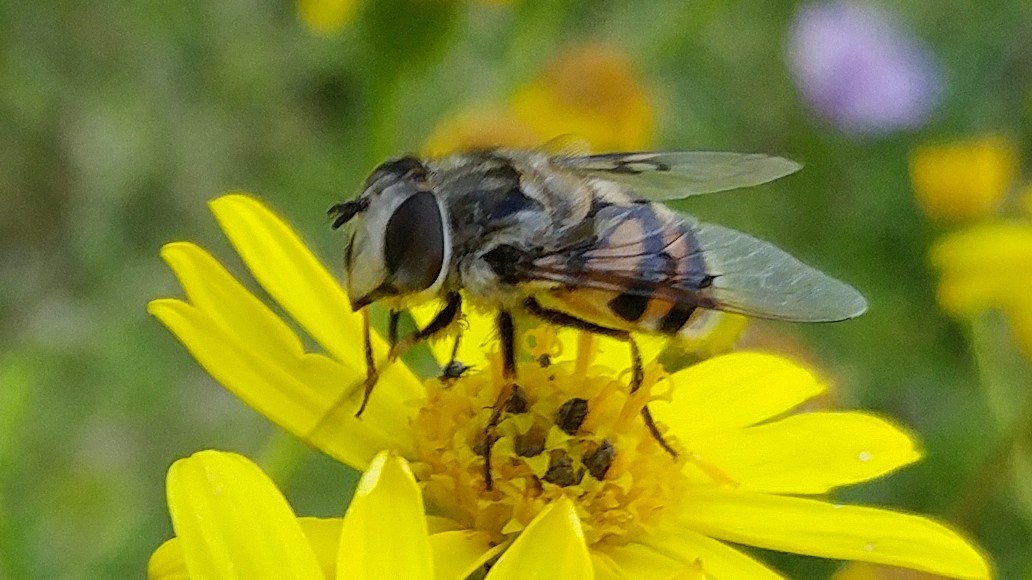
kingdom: Animalia
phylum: Arthropoda
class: Insecta
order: Diptera
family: Syrphidae
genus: Copestylum
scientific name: Copestylum avidum
